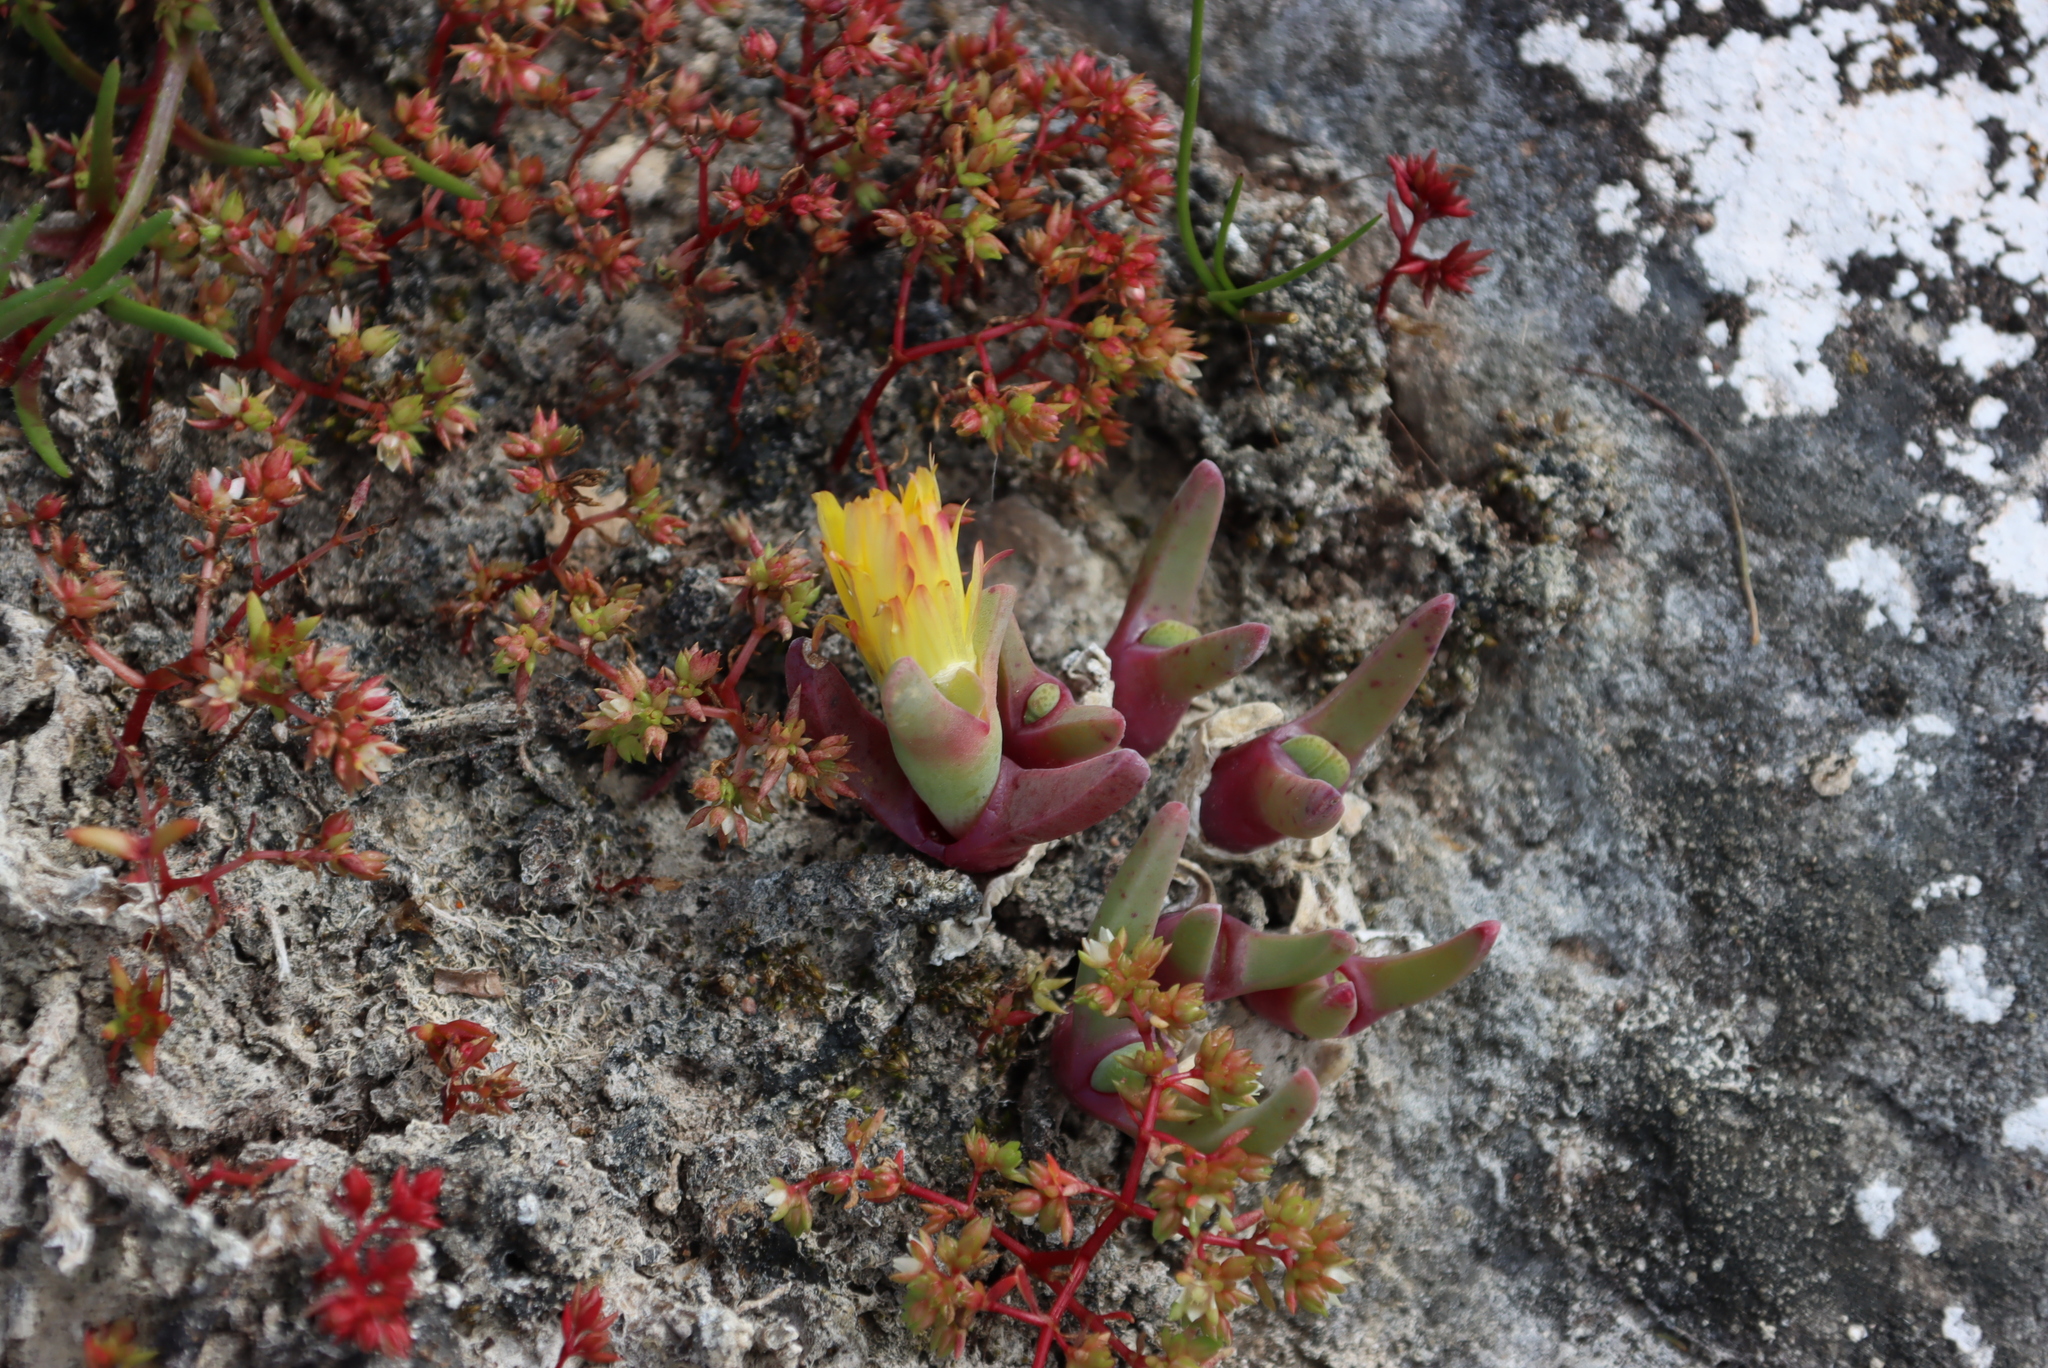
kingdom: Plantae
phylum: Tracheophyta
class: Magnoliopsida
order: Caryophyllales
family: Aizoaceae
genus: Cheiridopsis
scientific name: Cheiridopsis rostrata
